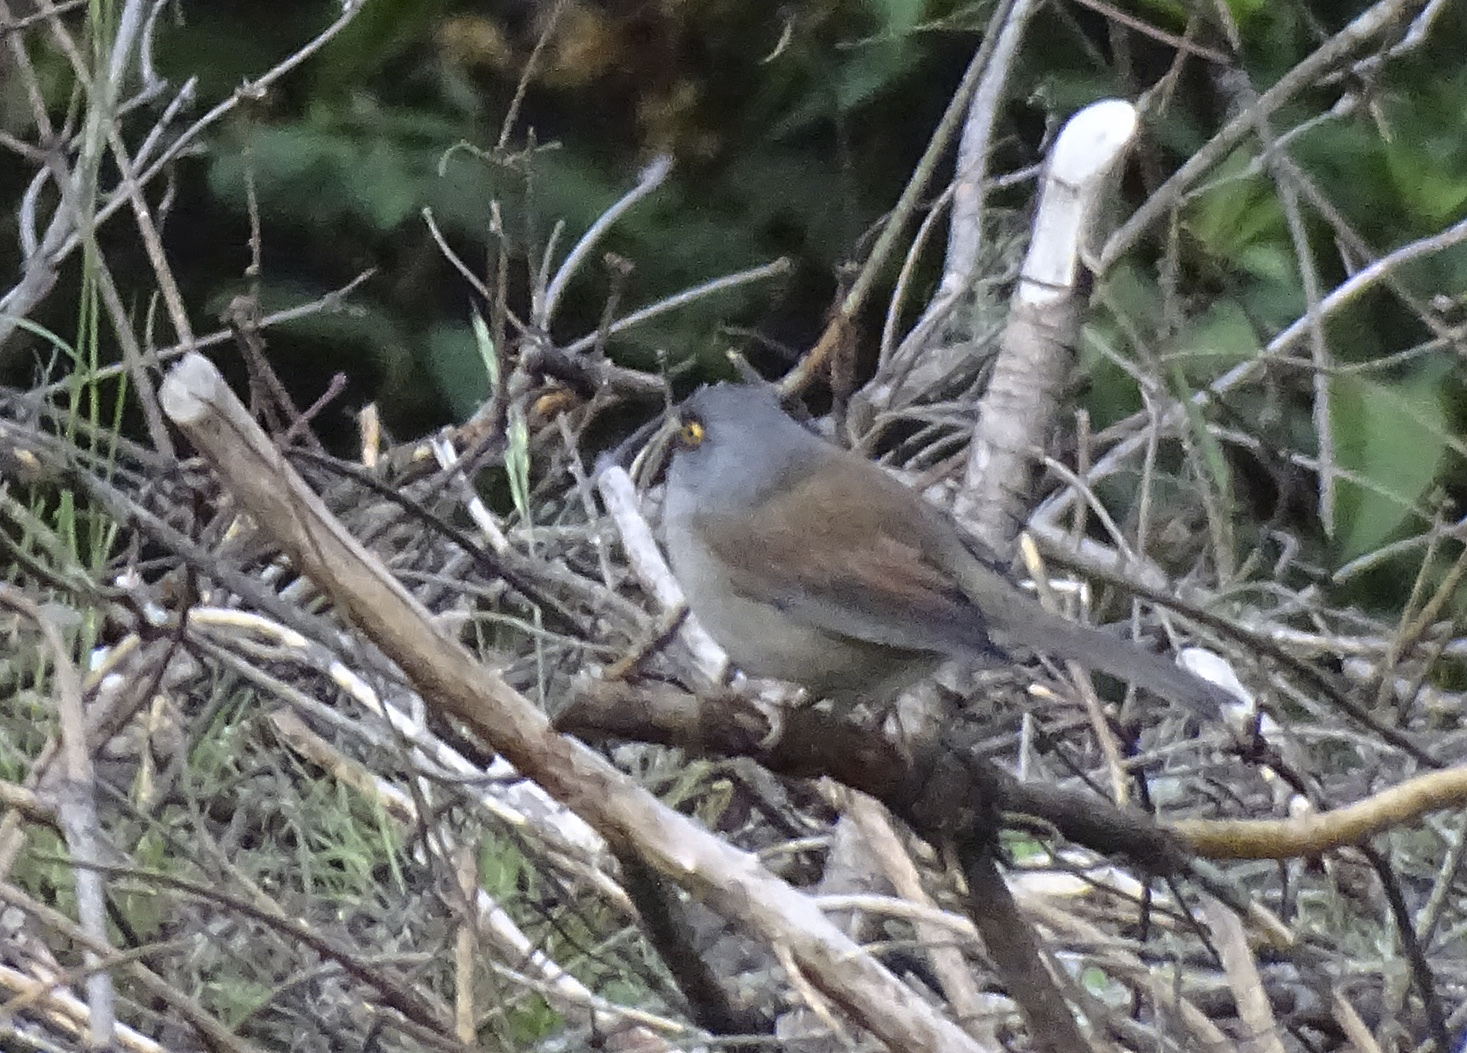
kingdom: Animalia
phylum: Chordata
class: Aves
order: Passeriformes
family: Passerellidae
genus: Junco
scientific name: Junco phaeonotus
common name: Yellow-eyed junco
